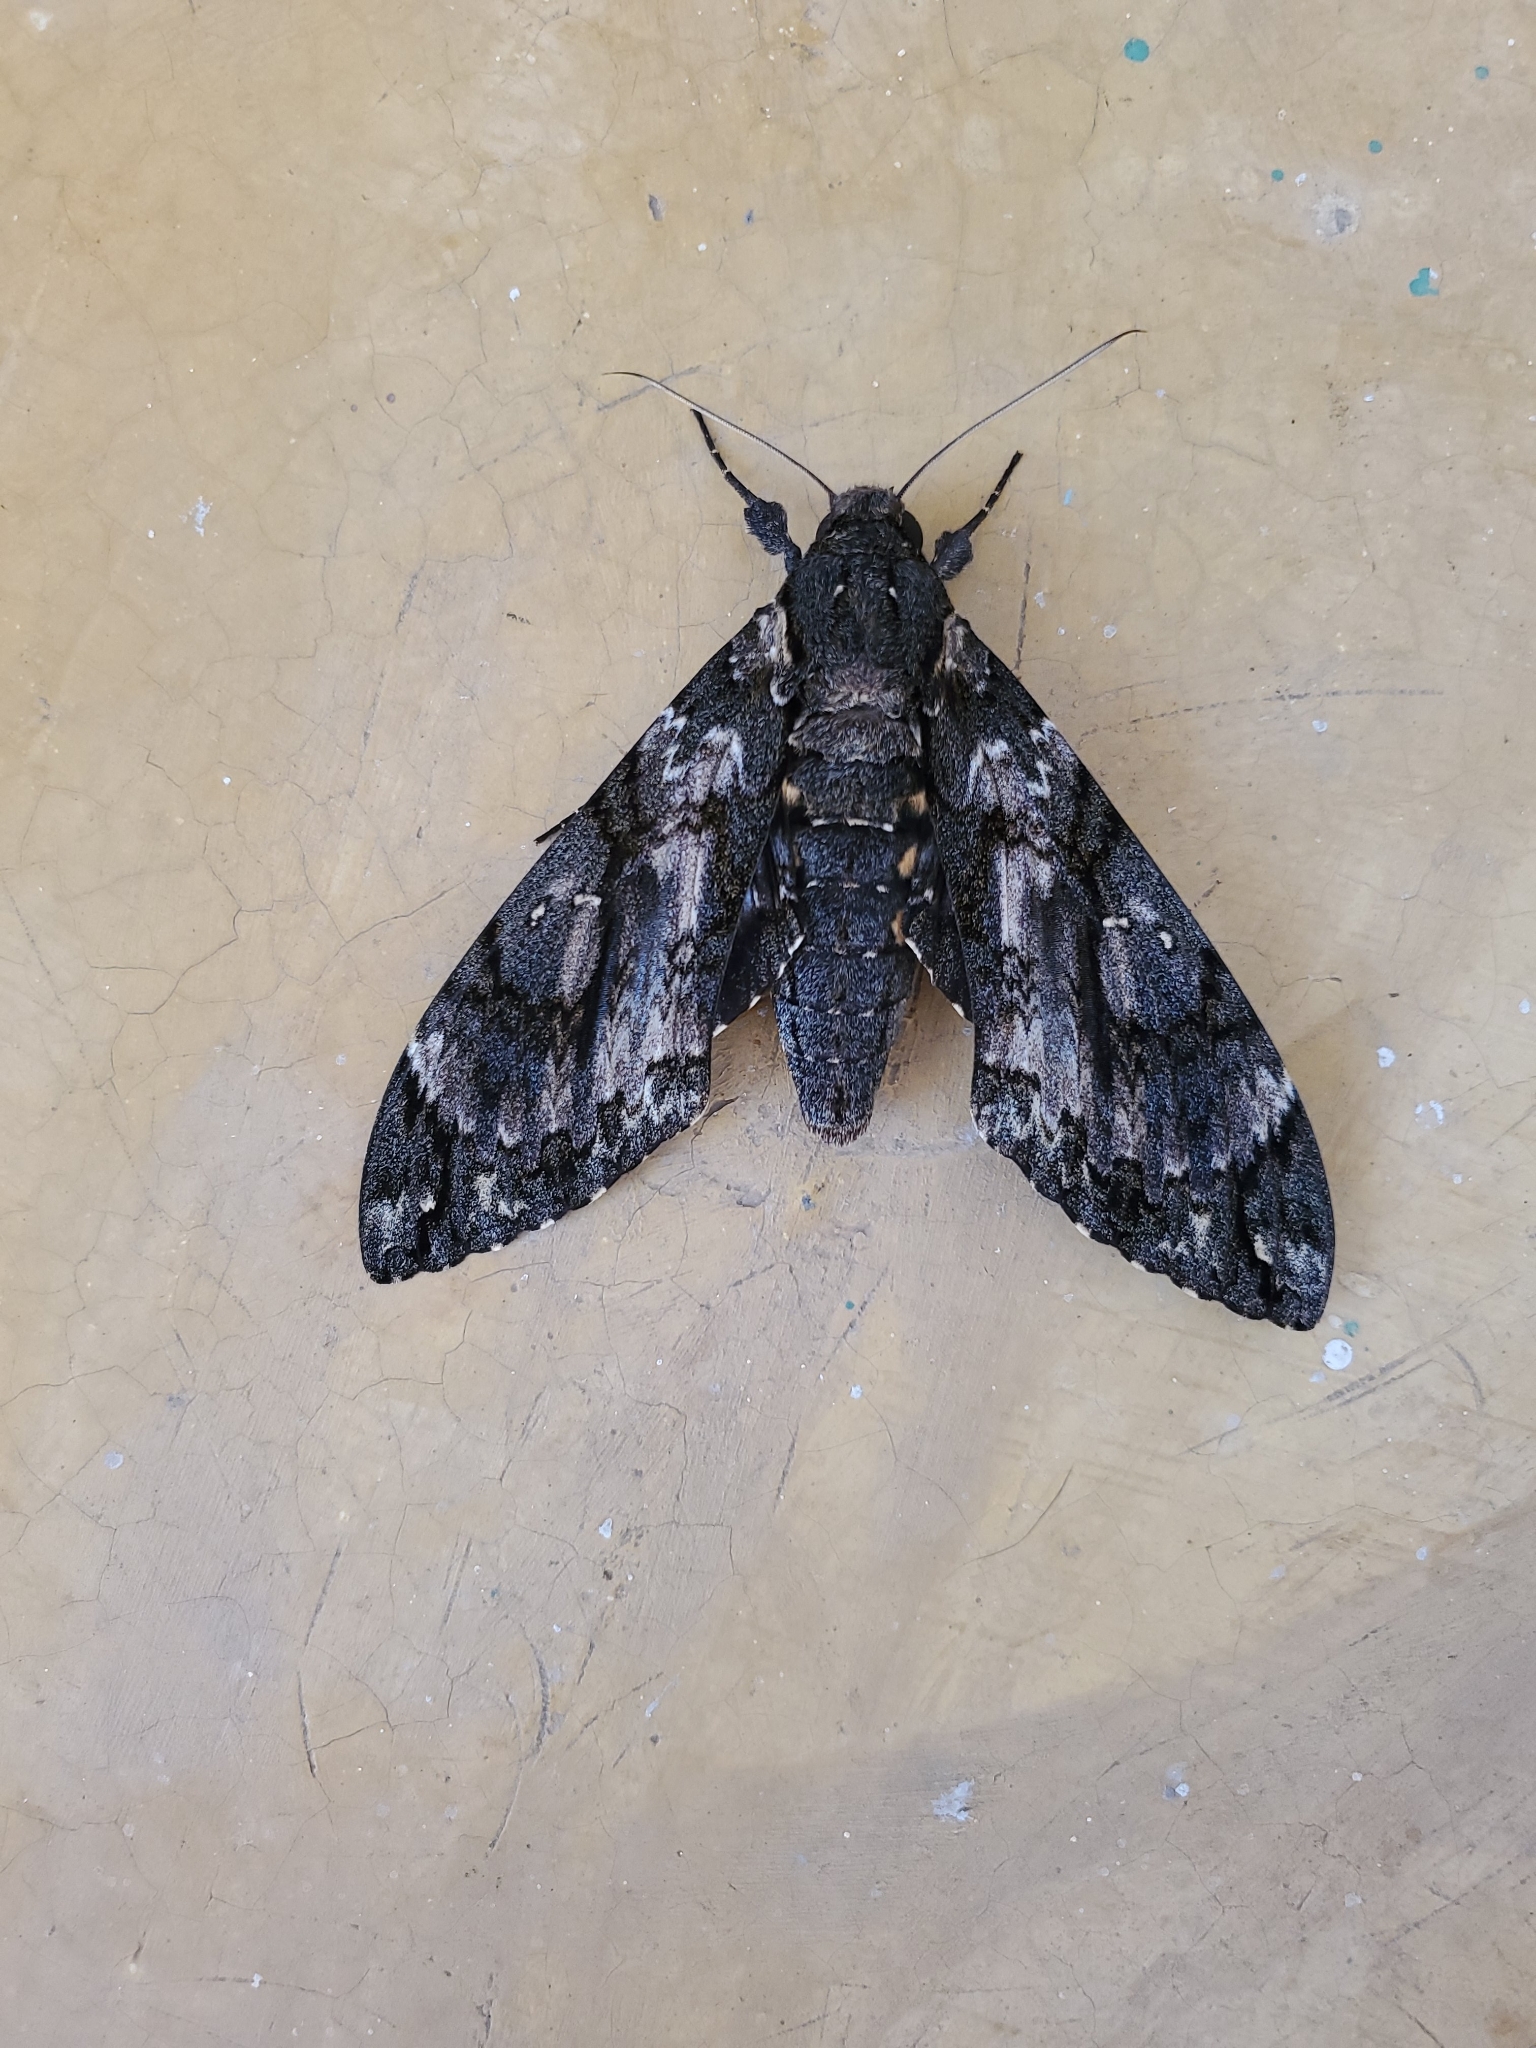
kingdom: Animalia
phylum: Arthropoda
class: Insecta
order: Lepidoptera
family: Sphingidae
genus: Cocytius
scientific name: Cocytius antaeus
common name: Giant sphinx
